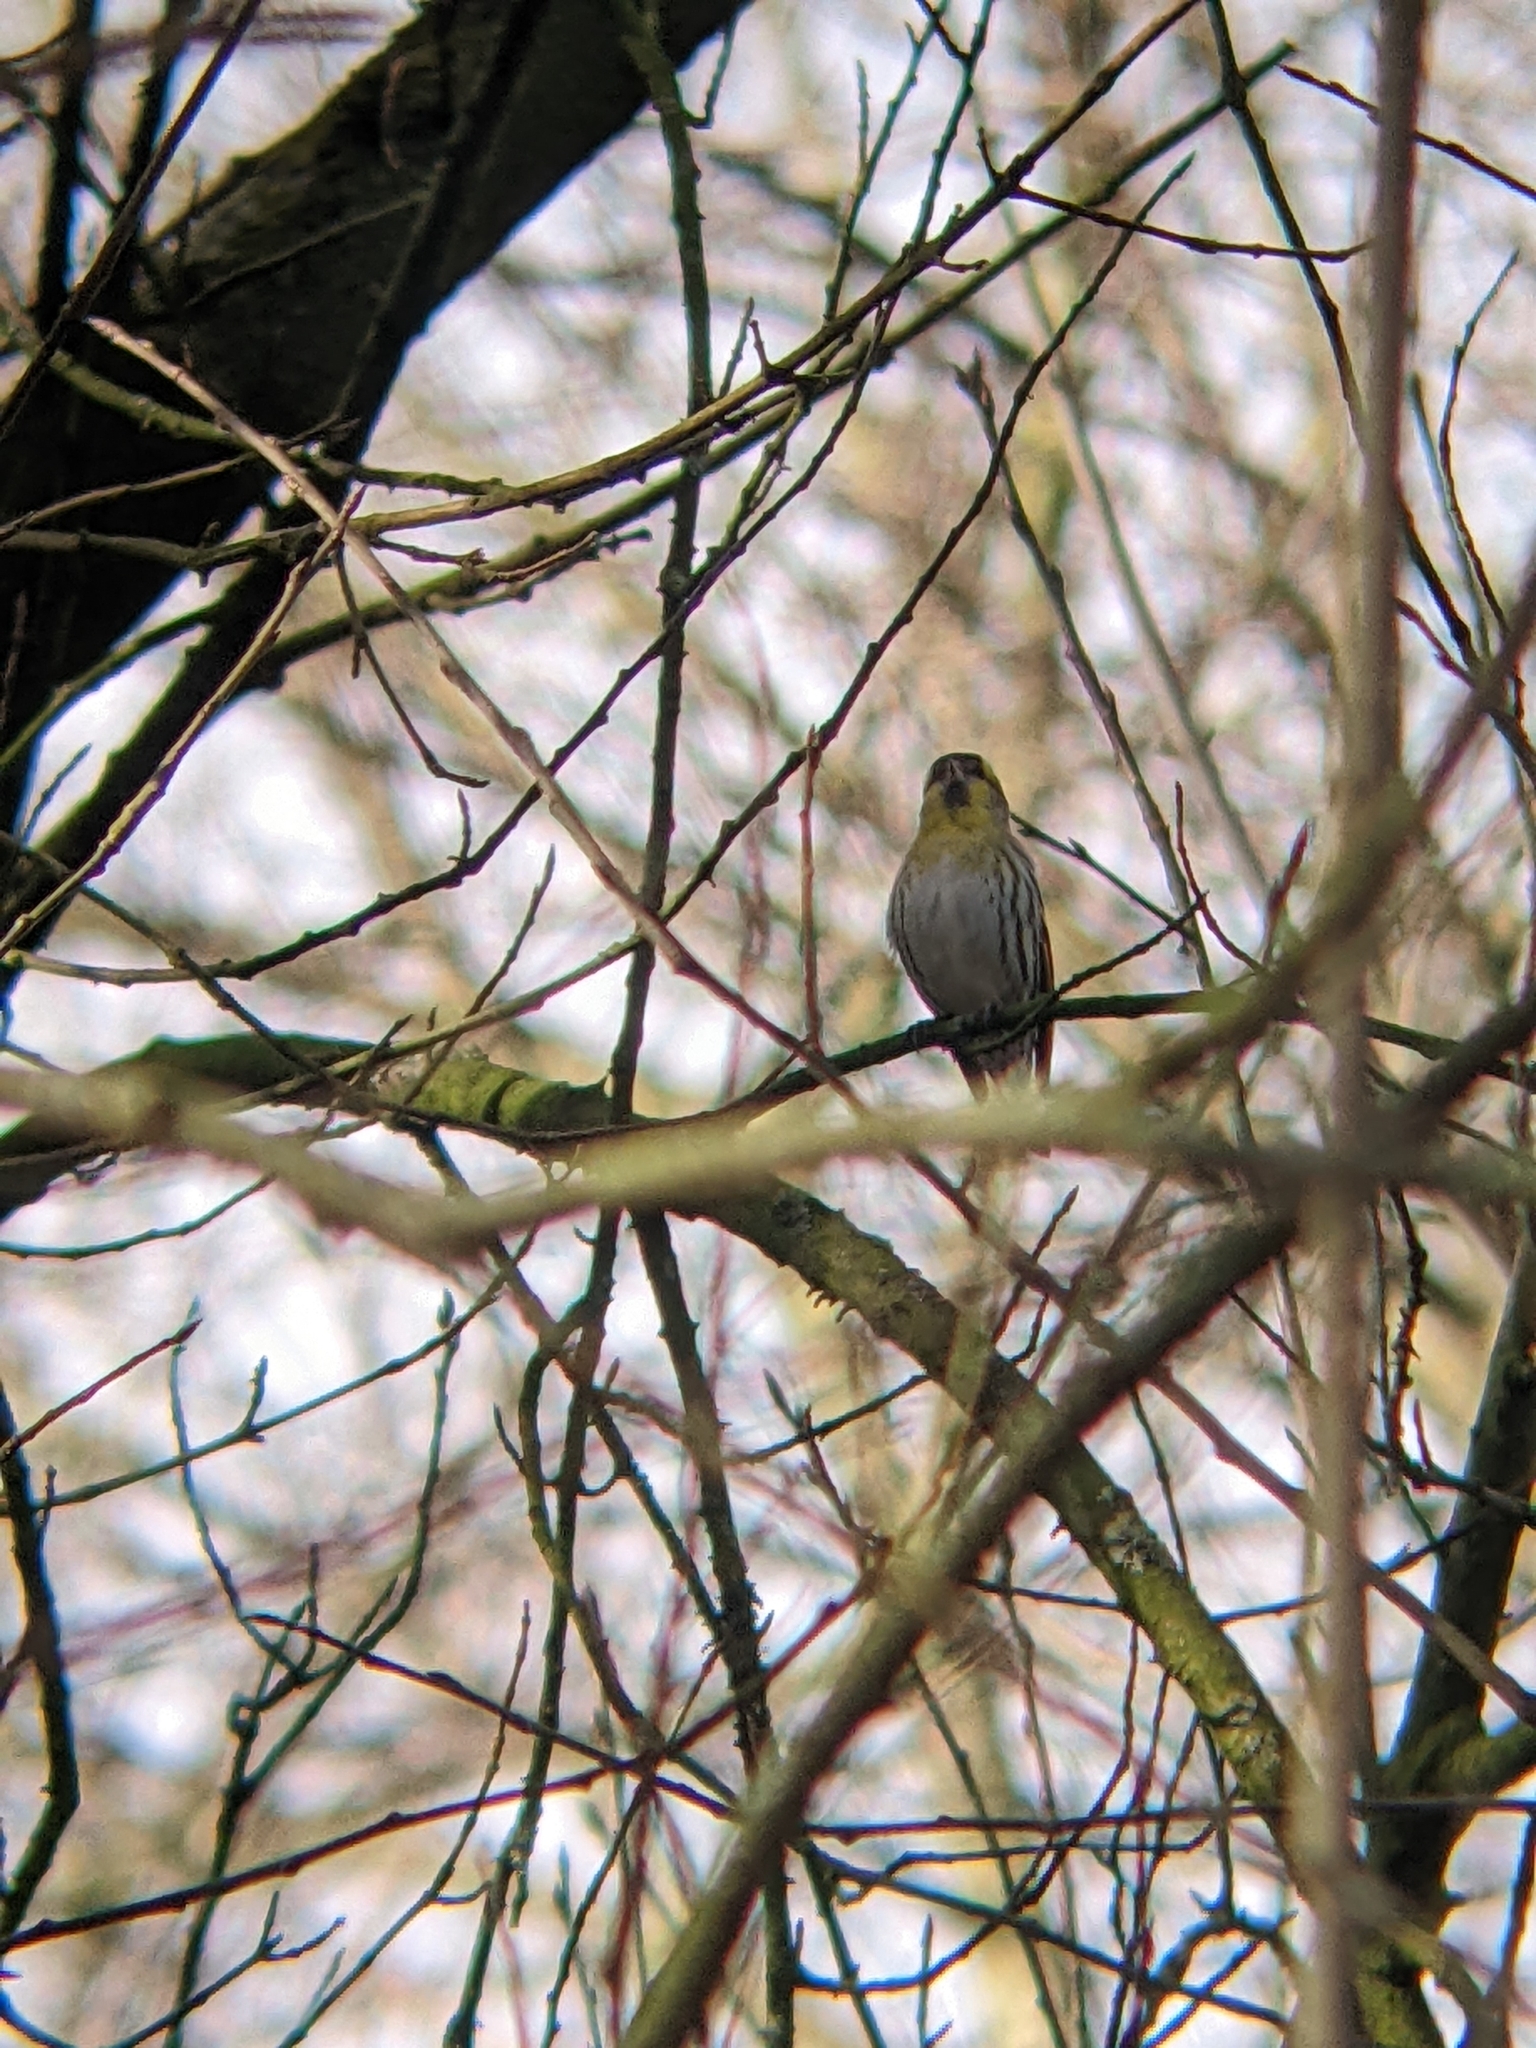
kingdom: Animalia
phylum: Chordata
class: Aves
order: Passeriformes
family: Fringillidae
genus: Spinus
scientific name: Spinus spinus
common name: Eurasian siskin
